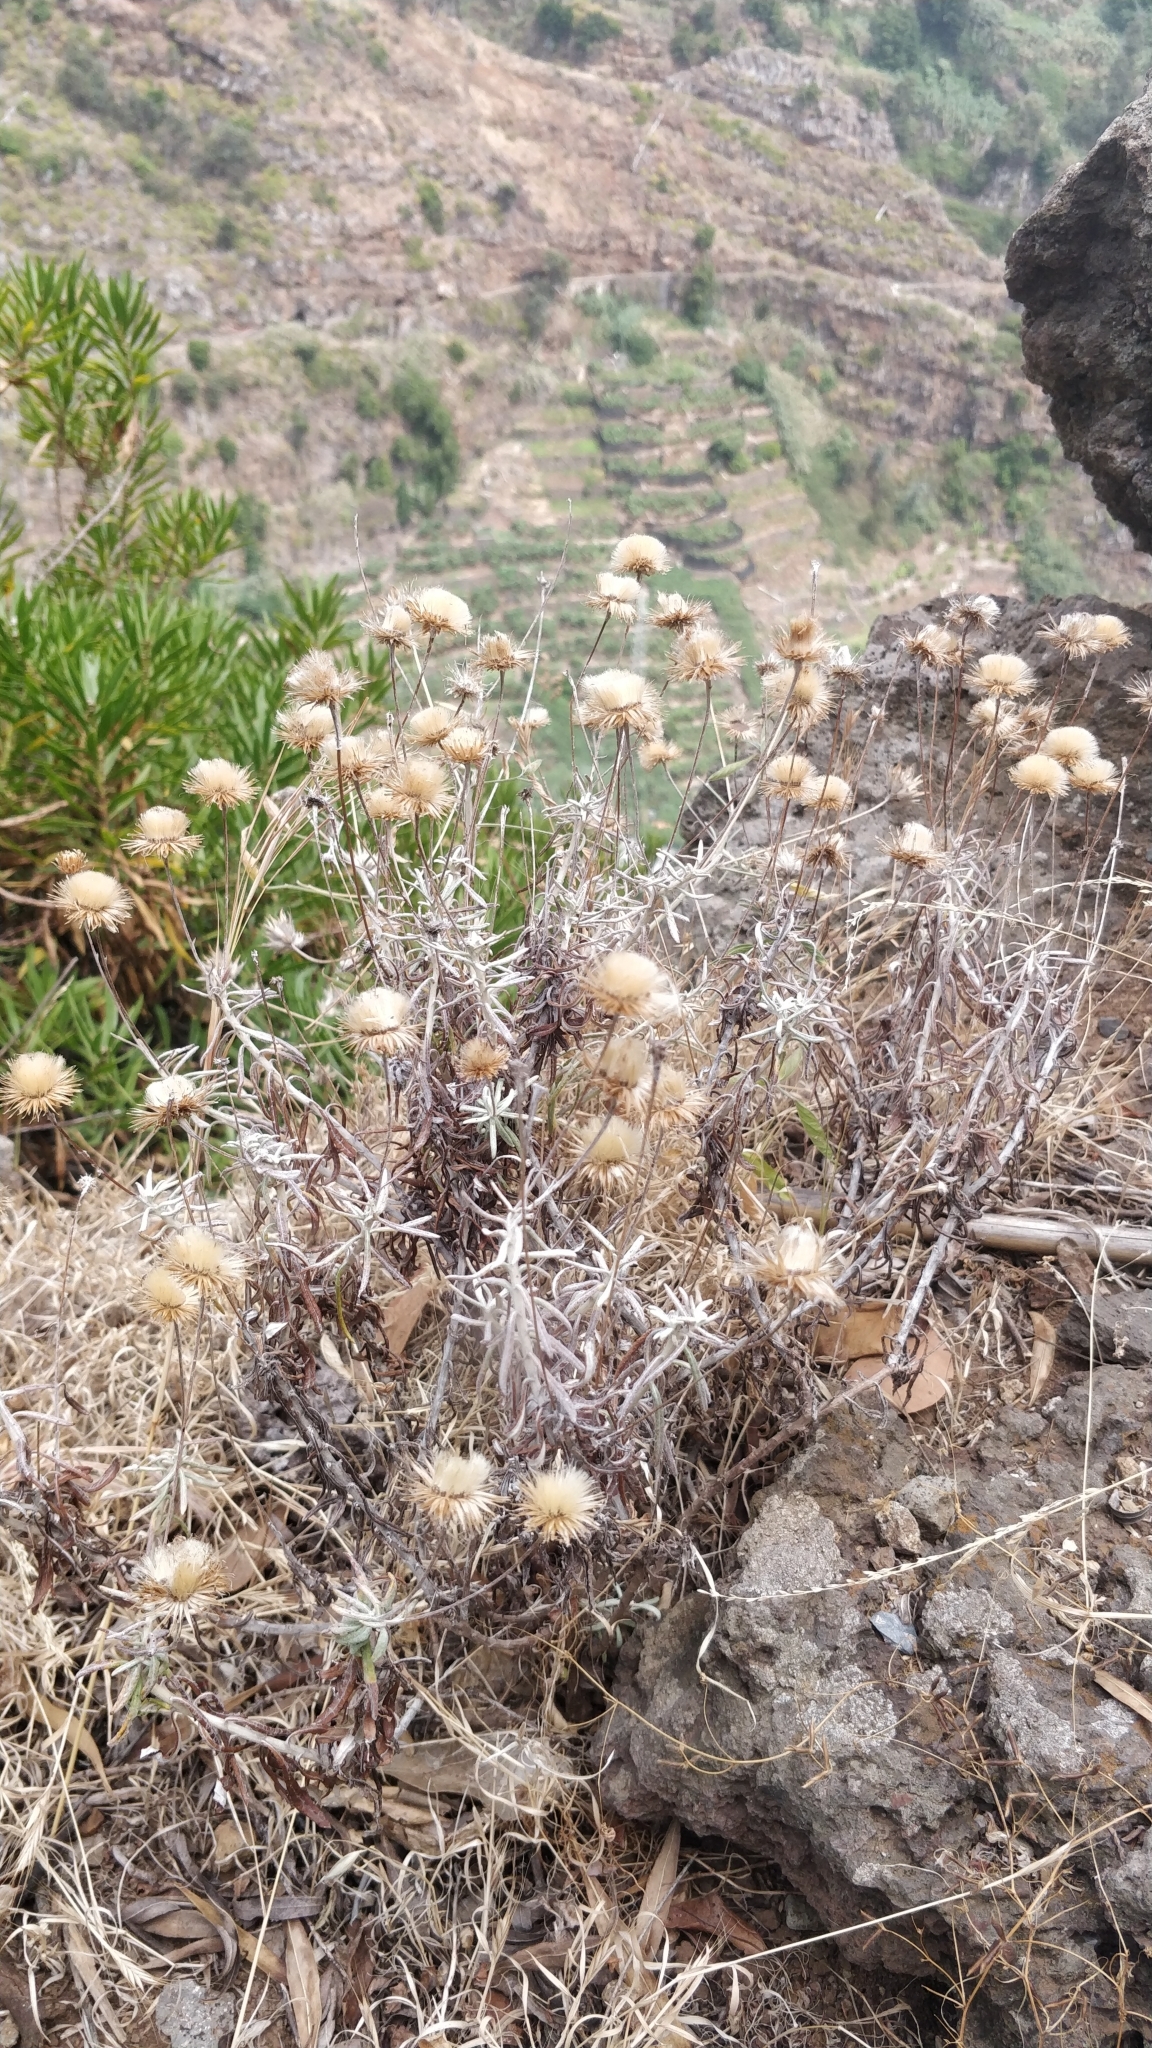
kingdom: Plantae
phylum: Tracheophyta
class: Magnoliopsida
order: Asterales
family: Asteraceae
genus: Phagnalon
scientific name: Phagnalon saxatile
